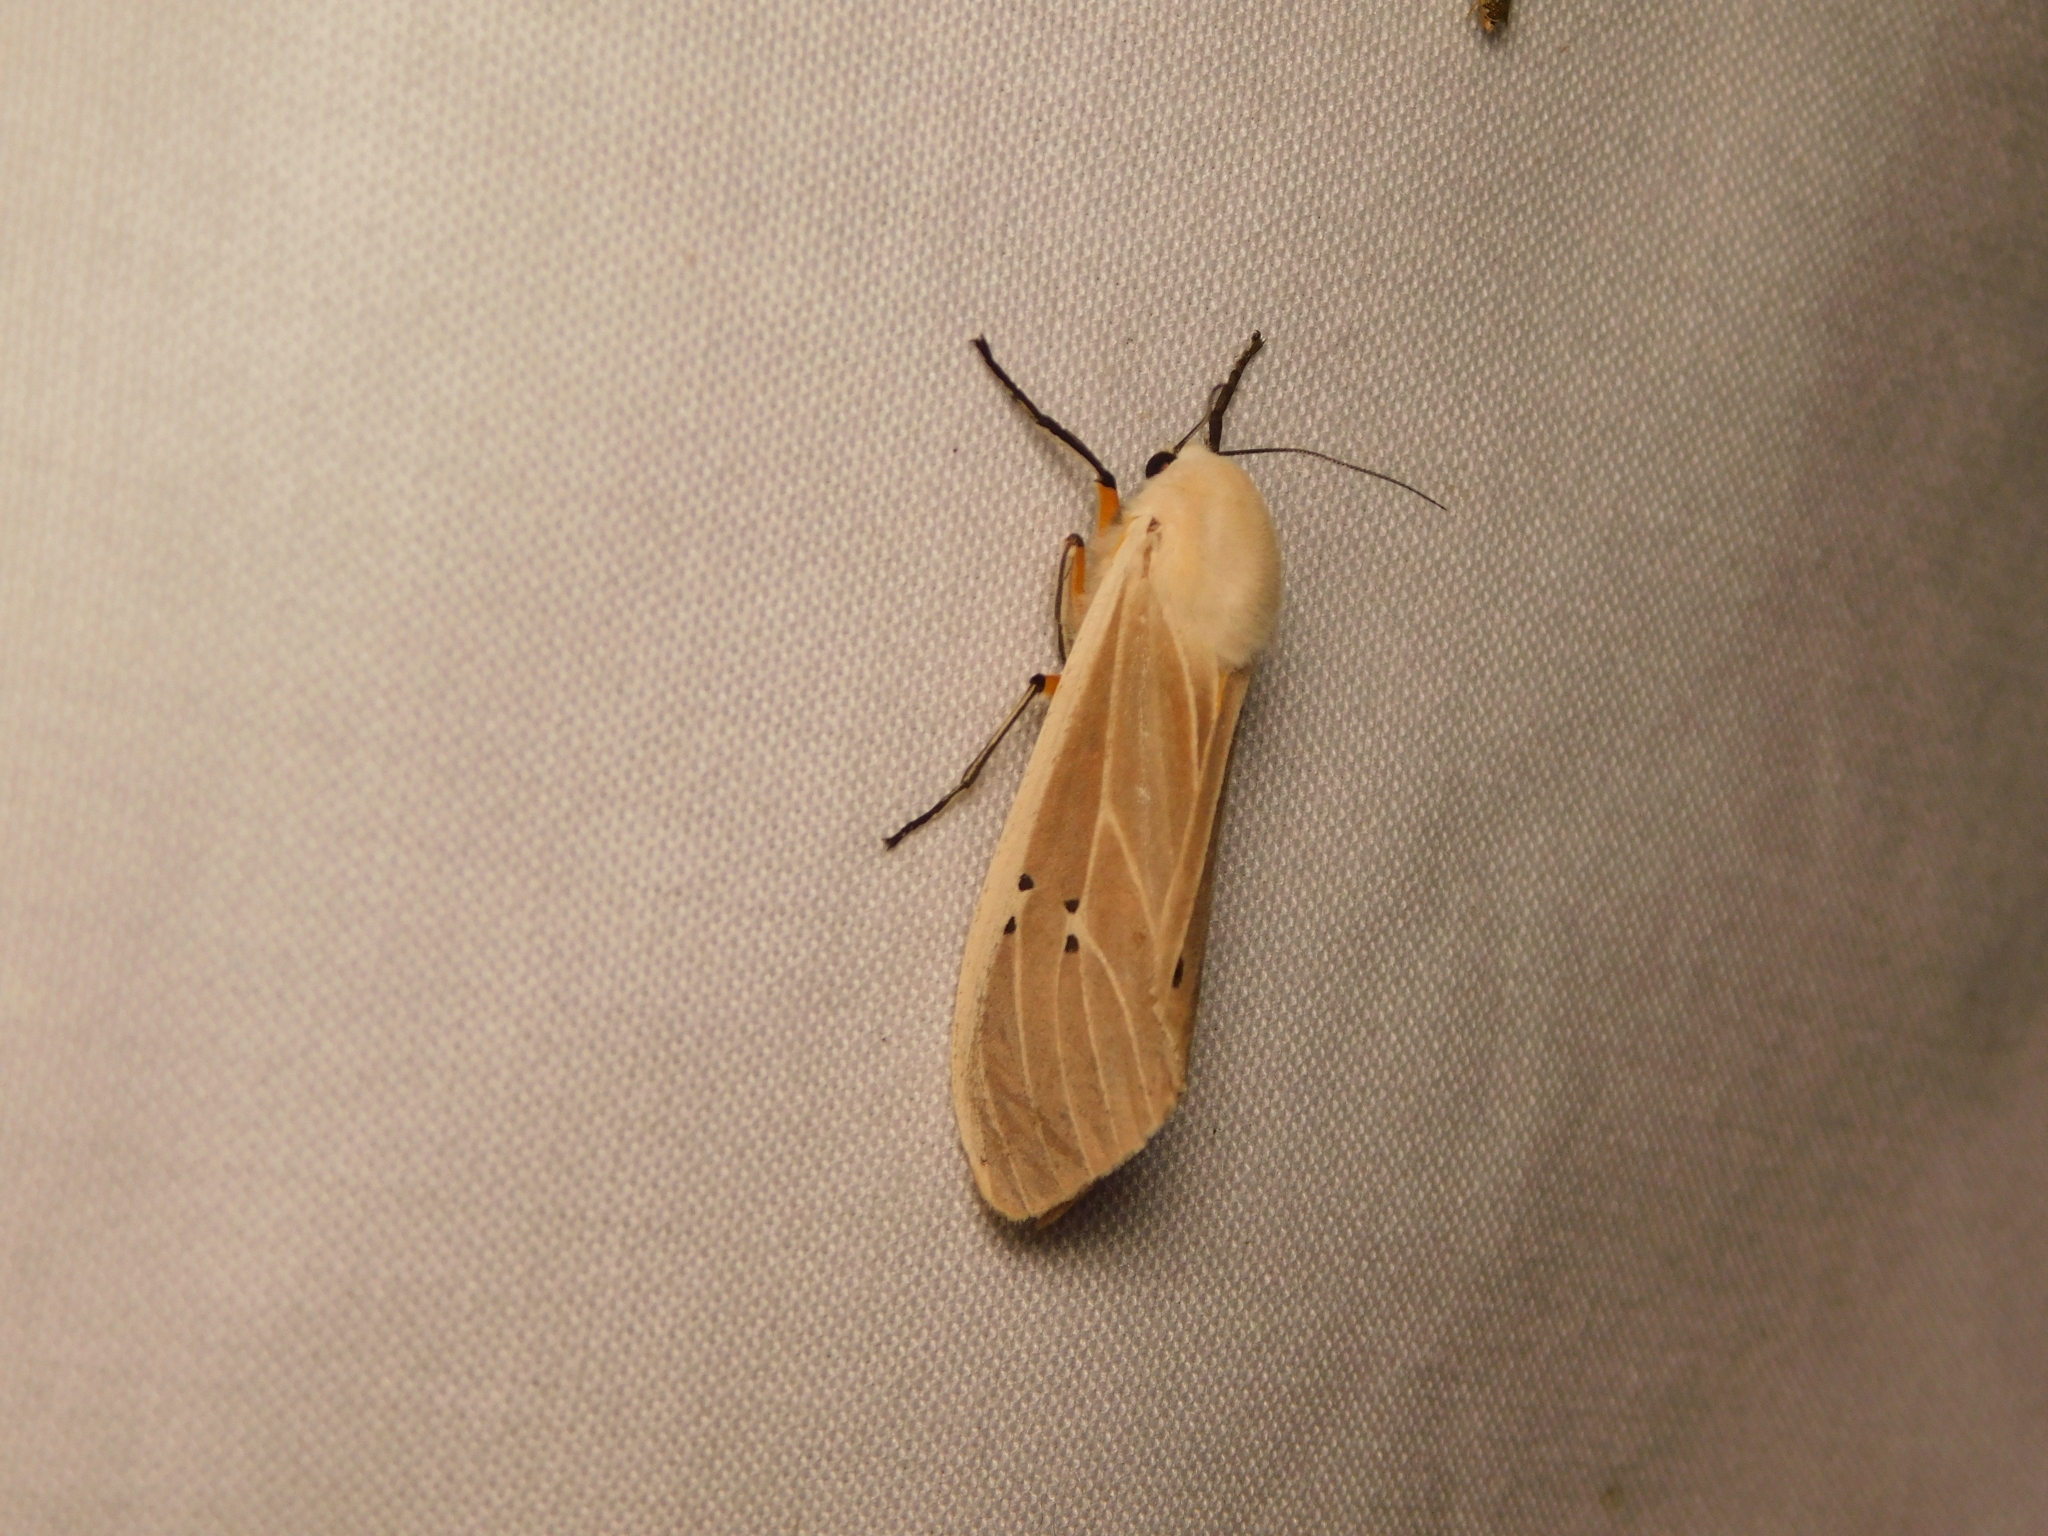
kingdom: Animalia
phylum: Arthropoda
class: Insecta
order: Lepidoptera
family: Erebidae
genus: Creatonotos
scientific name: Creatonotos transiens
